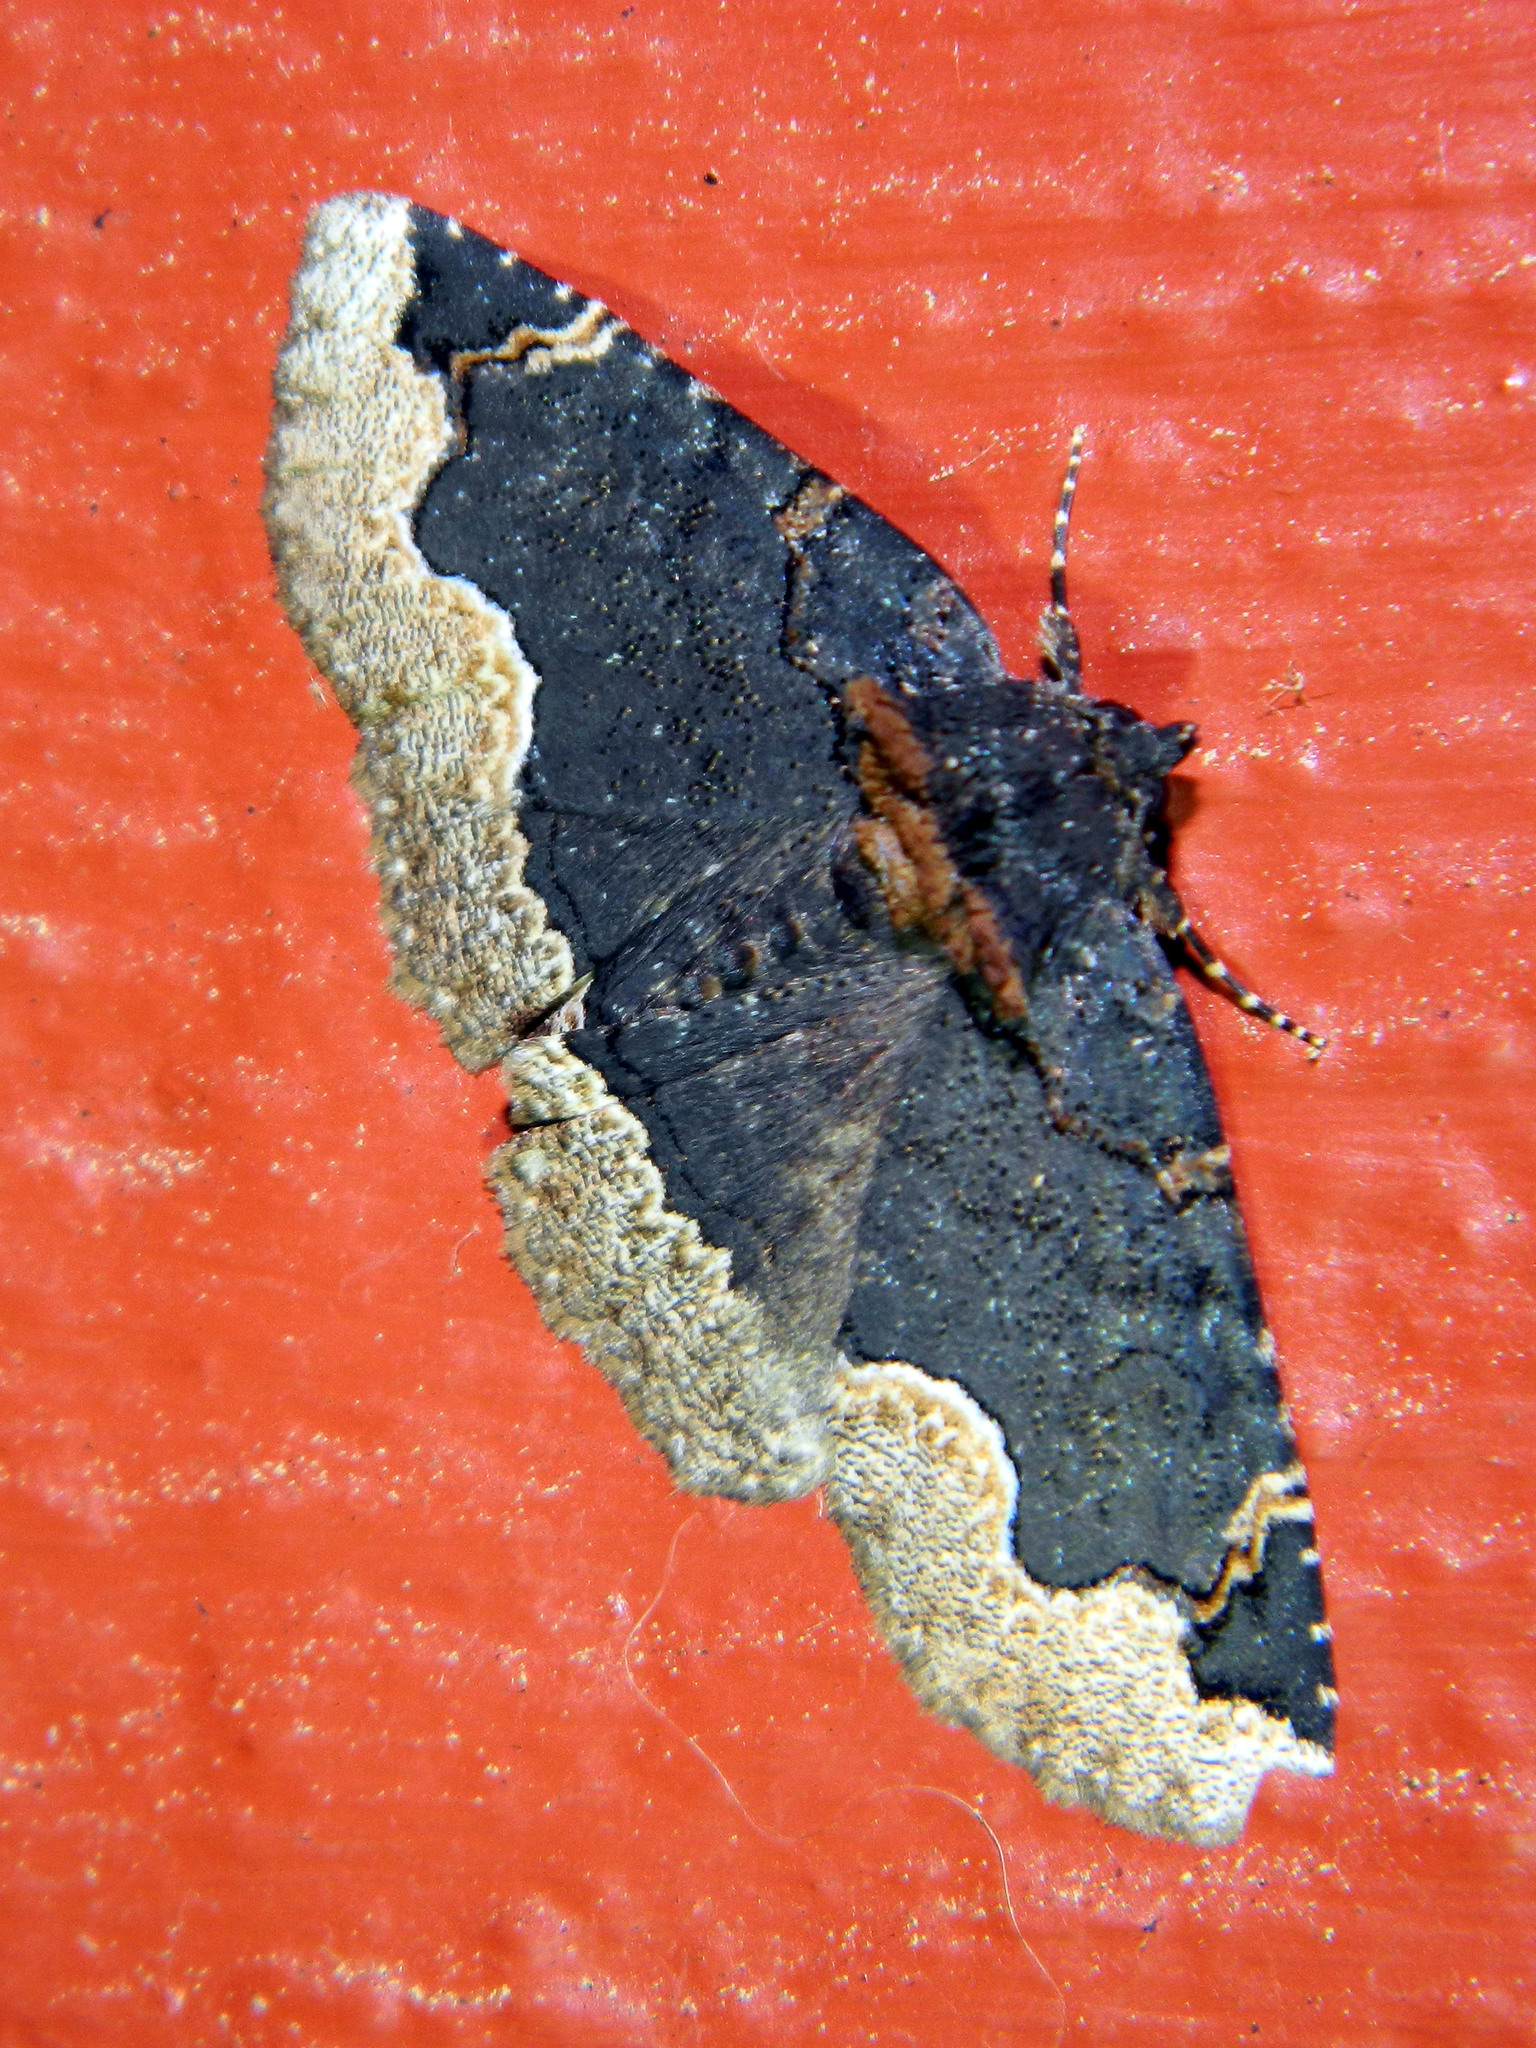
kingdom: Animalia
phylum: Arthropoda
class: Insecta
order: Lepidoptera
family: Erebidae
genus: Zale
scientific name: Zale horrida
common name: Horrid zale moth
